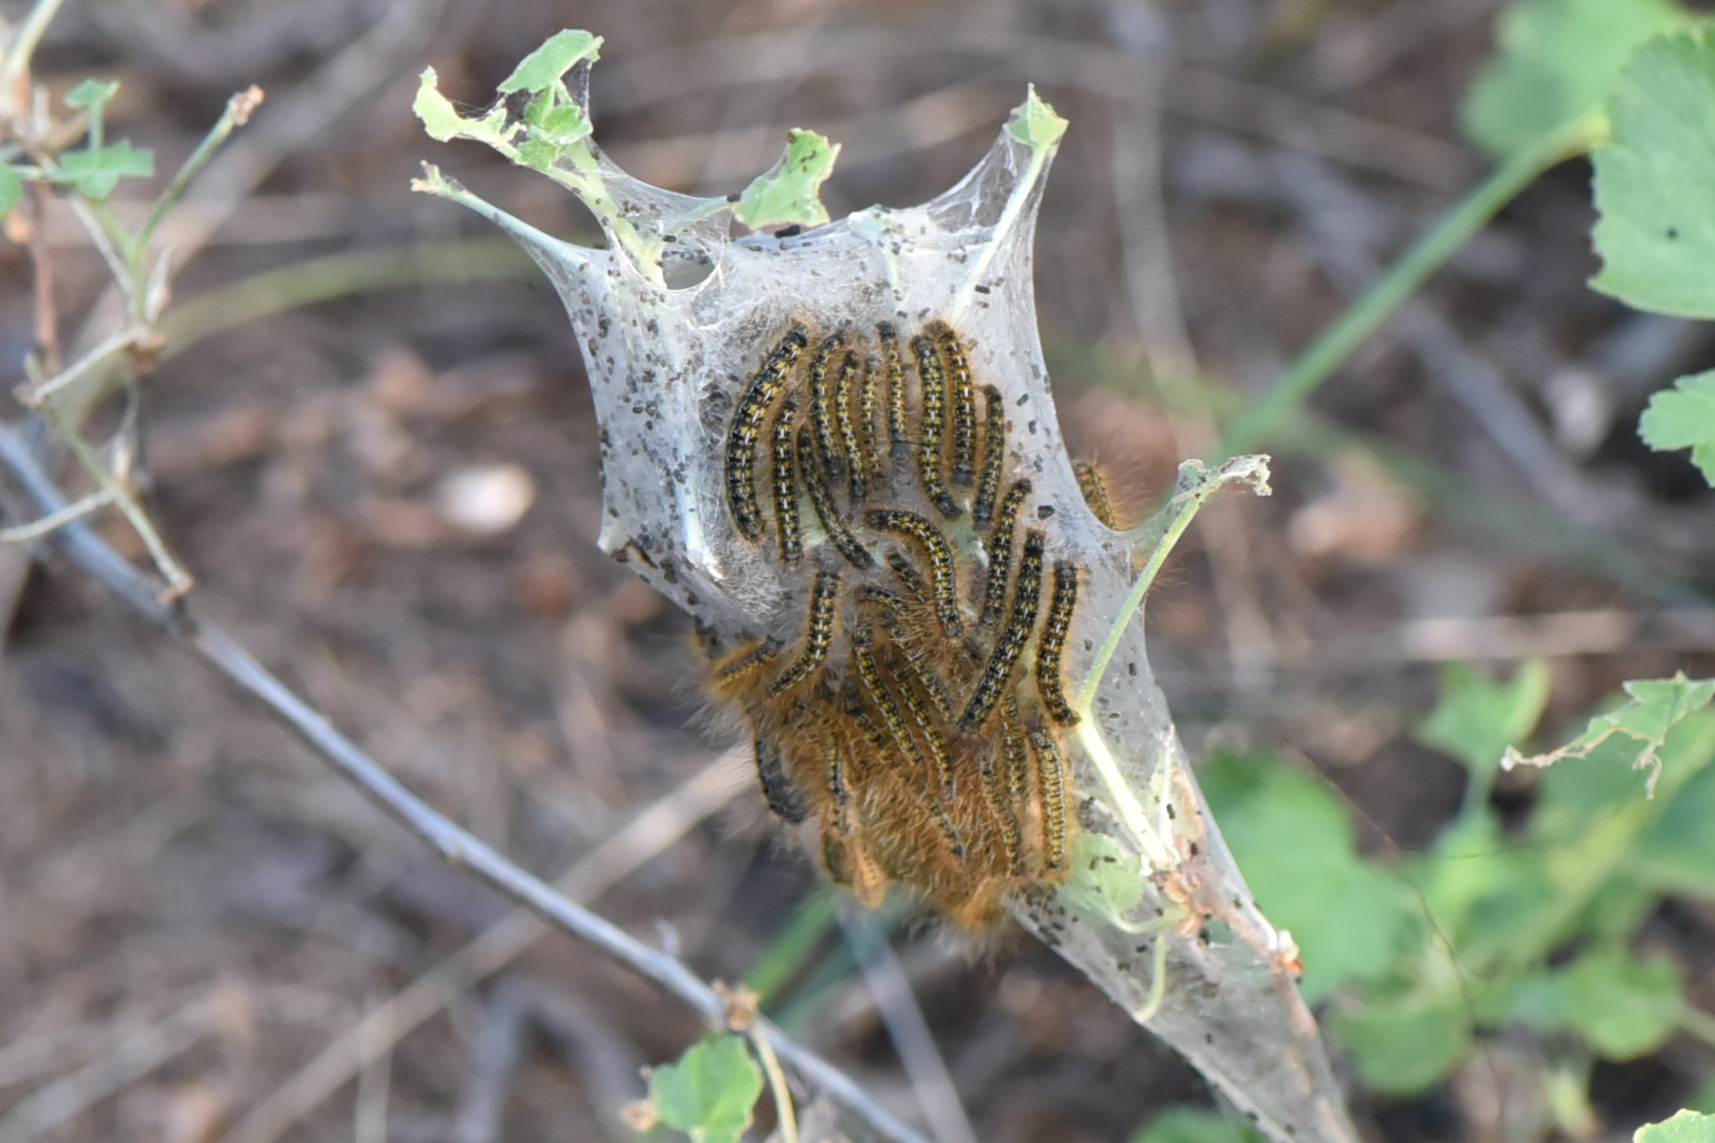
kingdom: Animalia
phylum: Arthropoda
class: Insecta
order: Lepidoptera
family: Lasiocampidae
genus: Malacosoma
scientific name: Malacosoma californica
